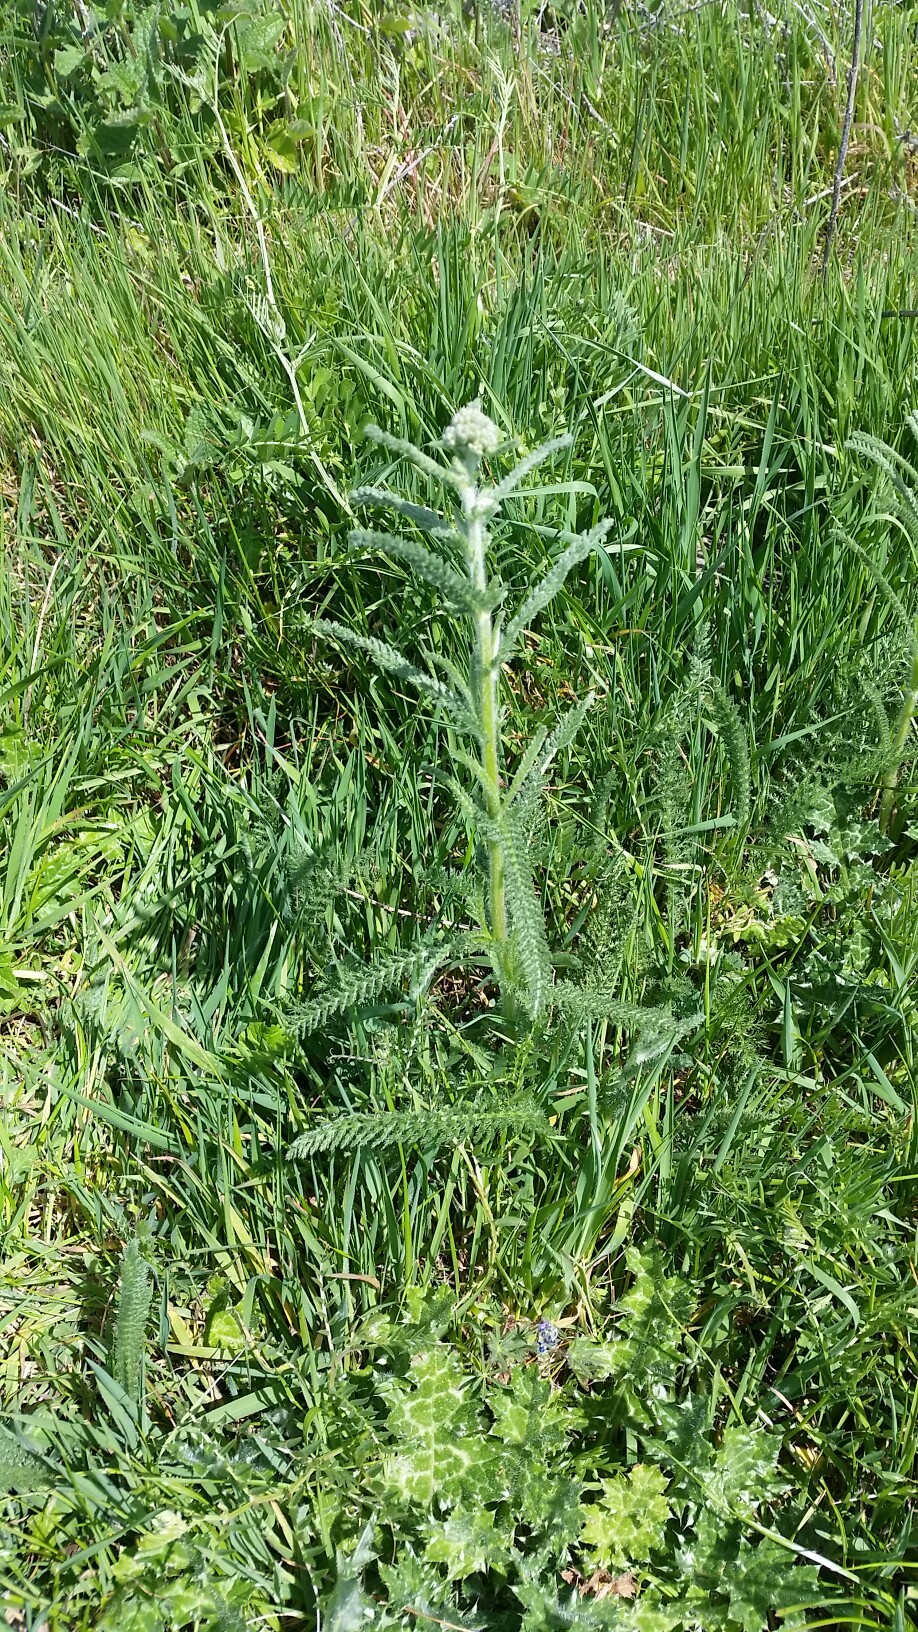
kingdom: Plantae
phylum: Tracheophyta
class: Magnoliopsida
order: Asterales
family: Asteraceae
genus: Achillea
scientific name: Achillea millefolium
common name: Yarrow
